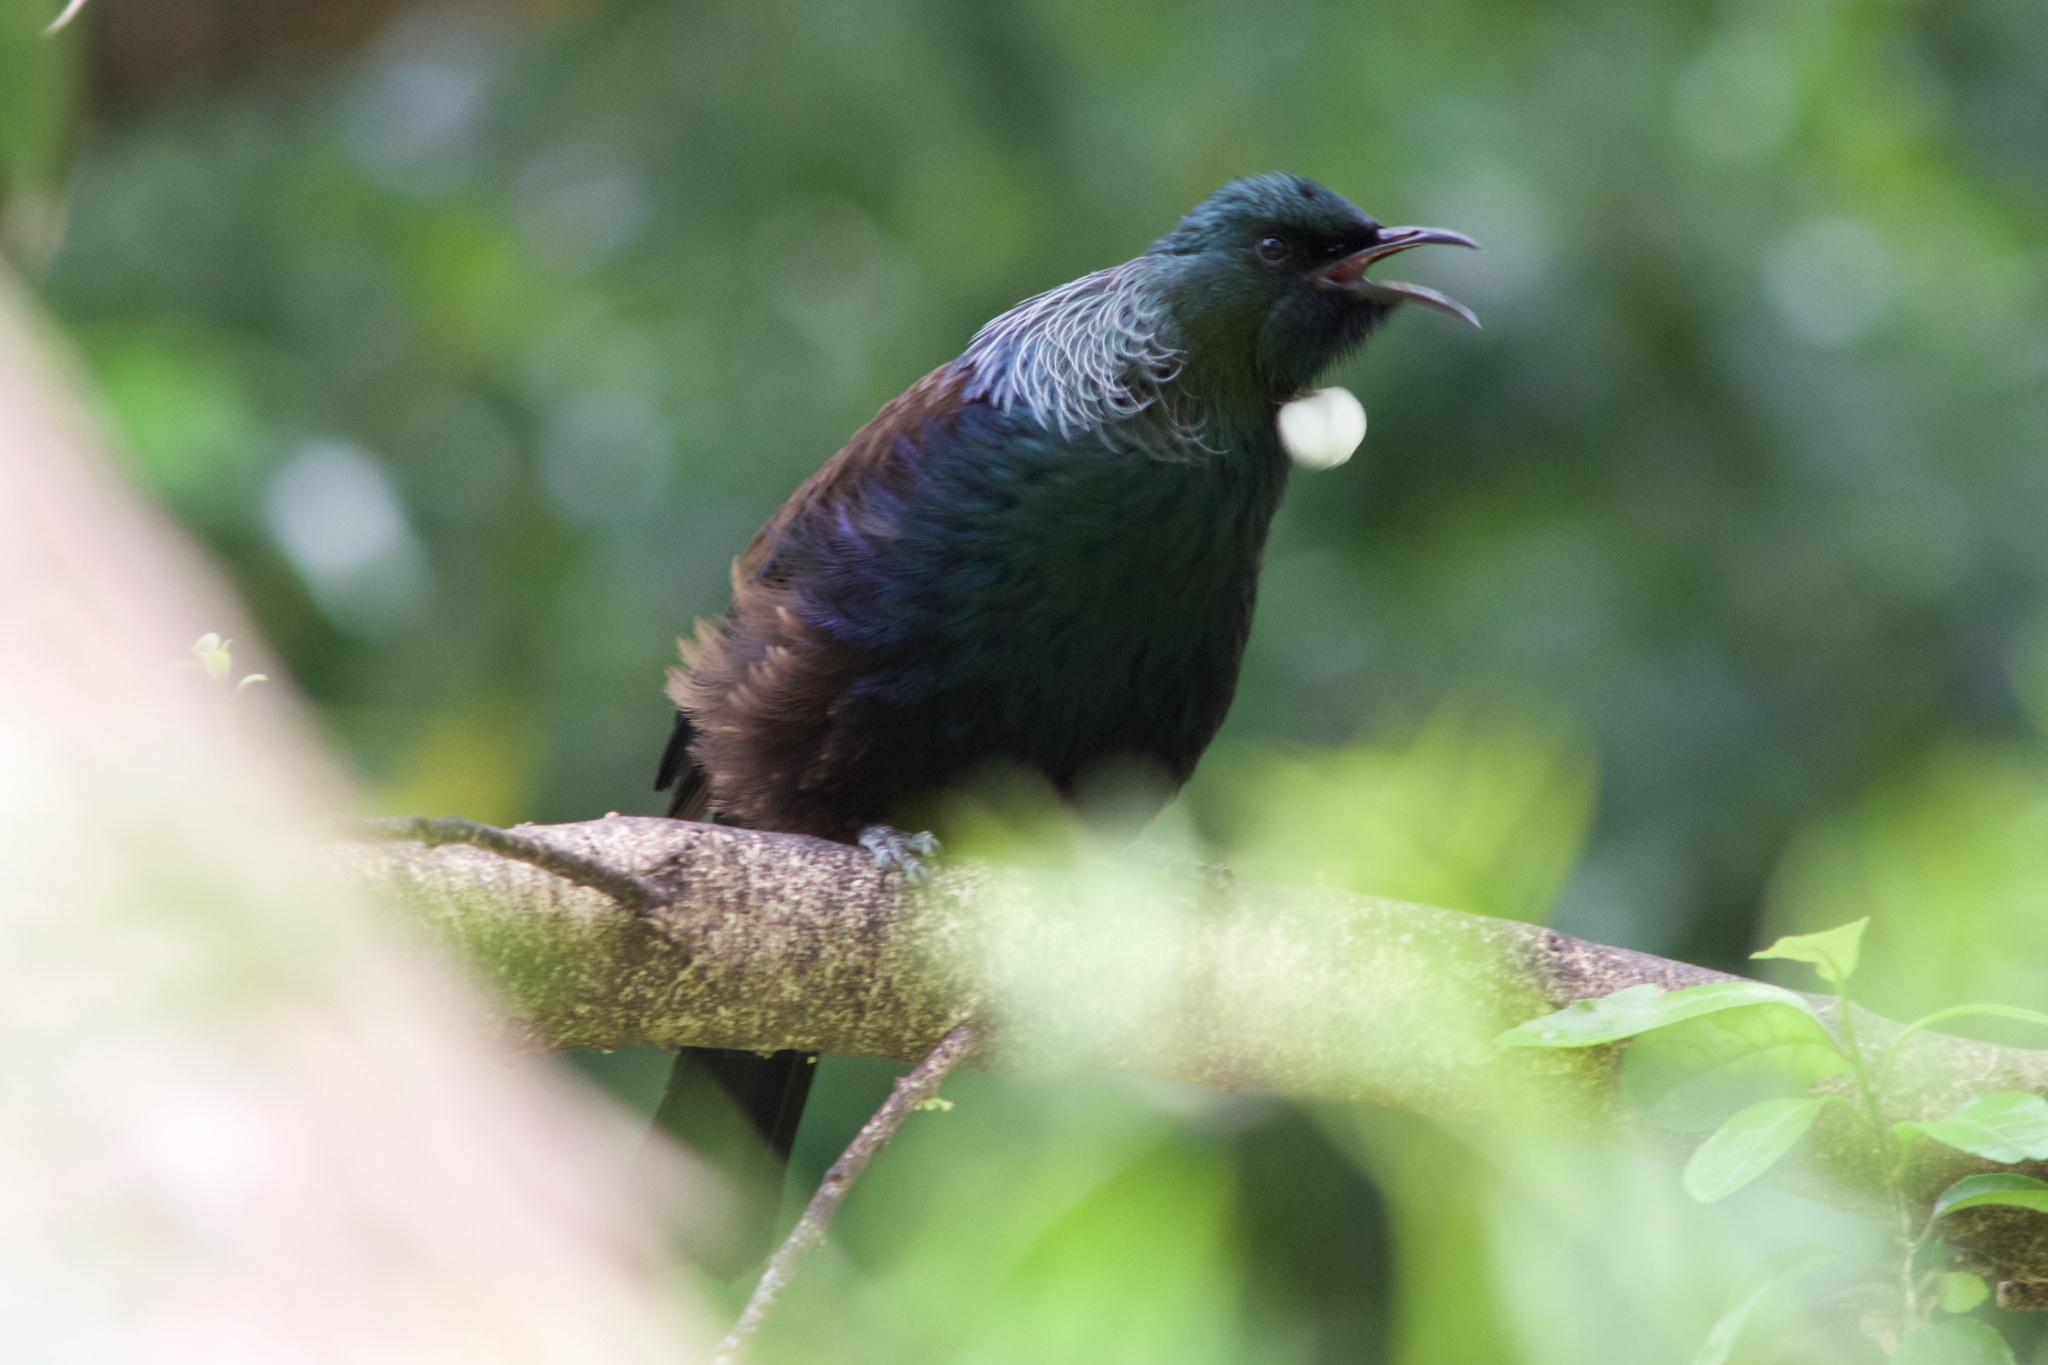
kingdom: Animalia
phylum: Chordata
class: Aves
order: Passeriformes
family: Meliphagidae
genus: Prosthemadera
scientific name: Prosthemadera novaeseelandiae
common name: Tui
